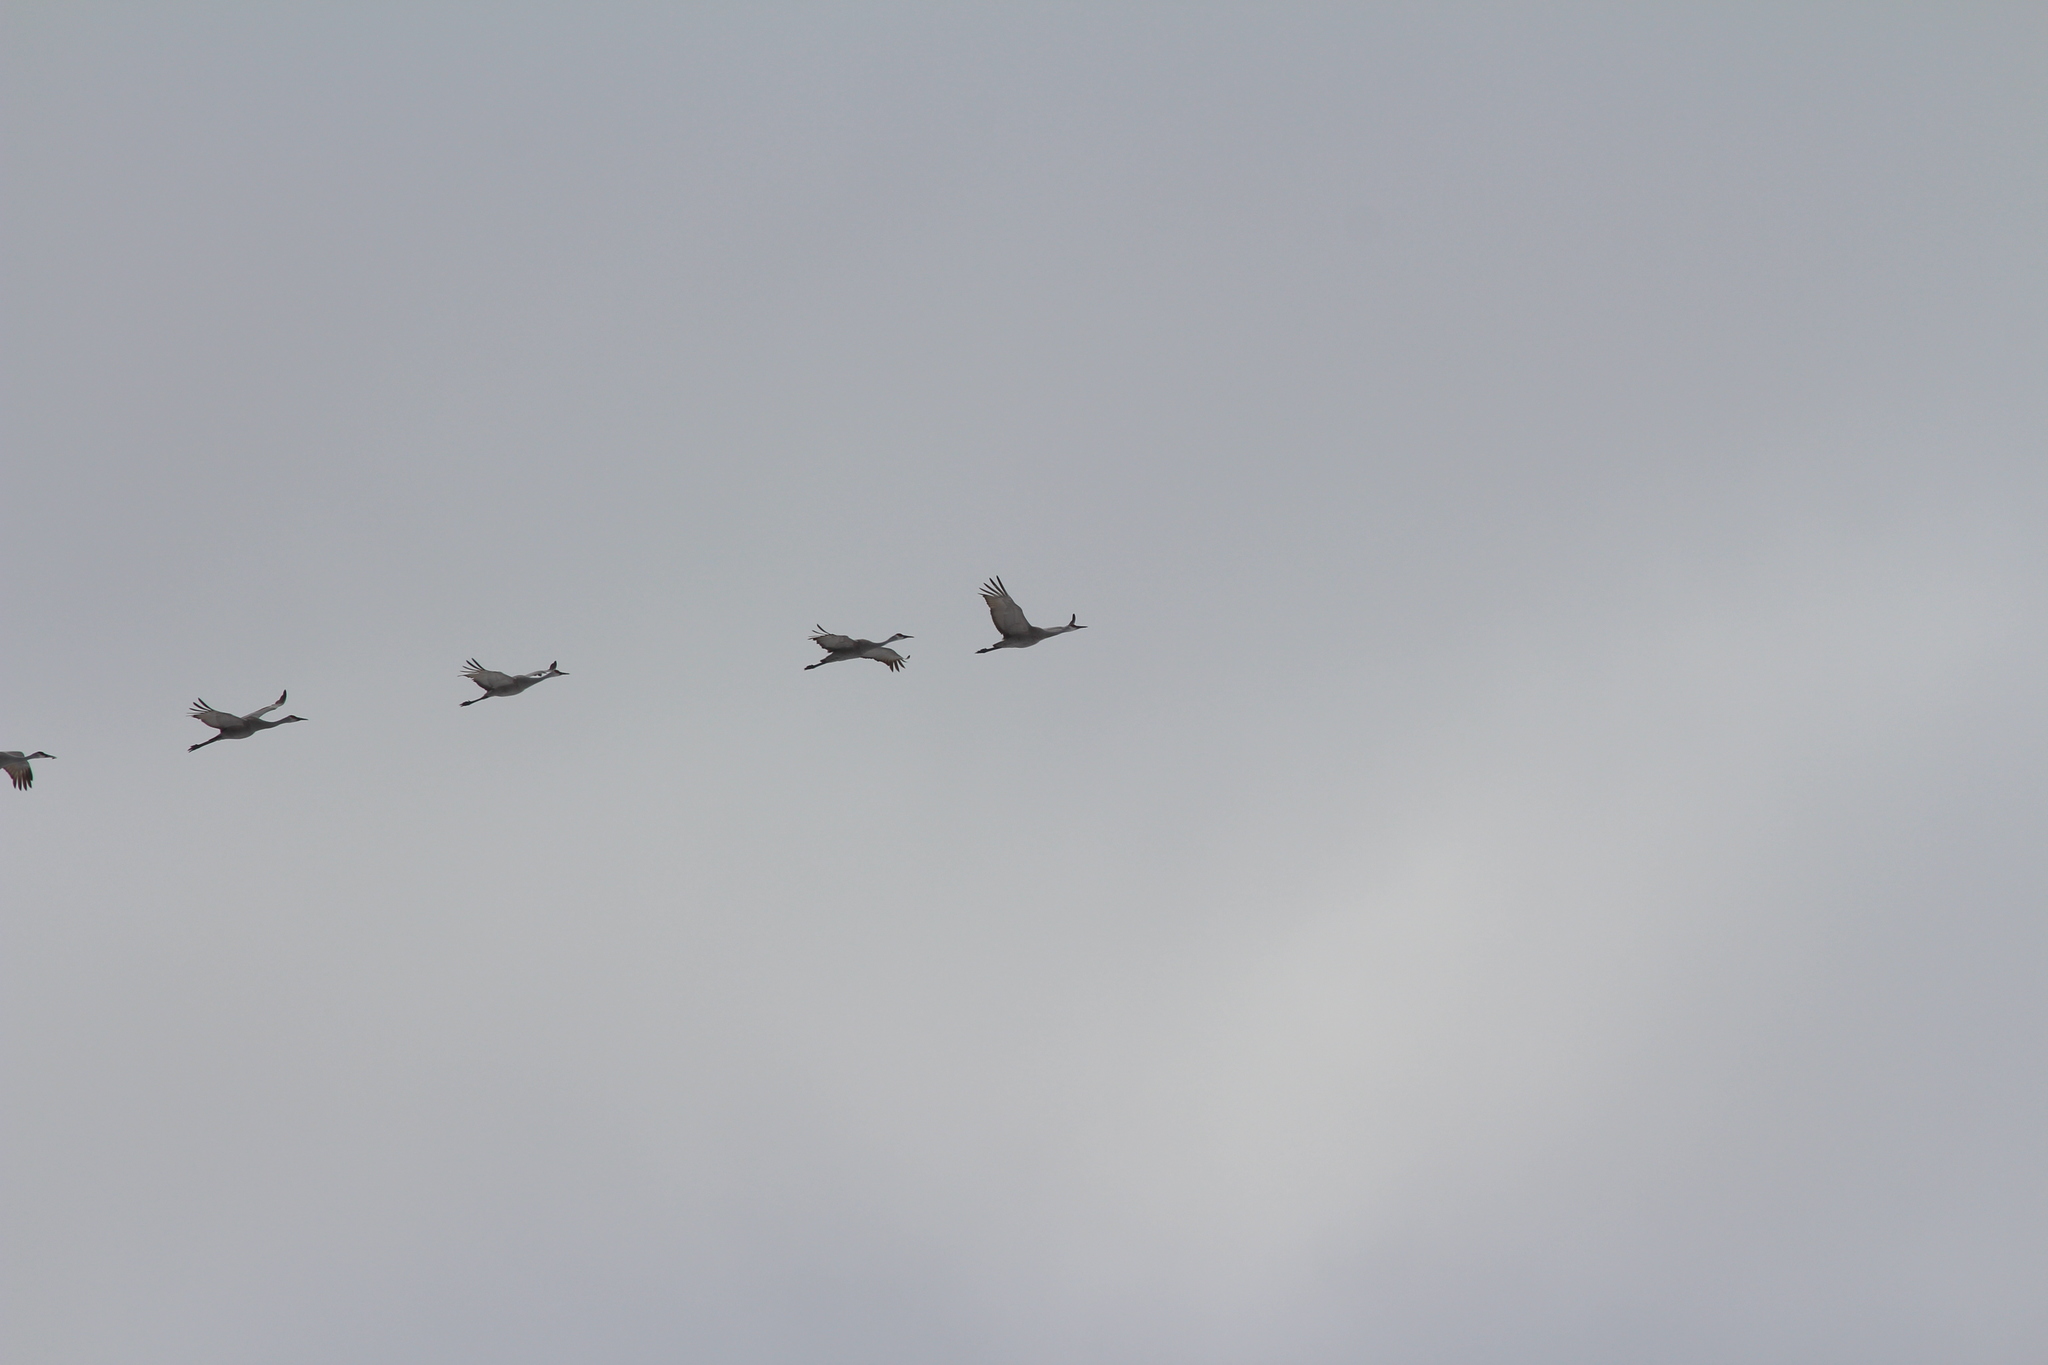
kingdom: Animalia
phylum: Chordata
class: Aves
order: Gruiformes
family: Gruidae
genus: Grus
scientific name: Grus canadensis
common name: Sandhill crane
